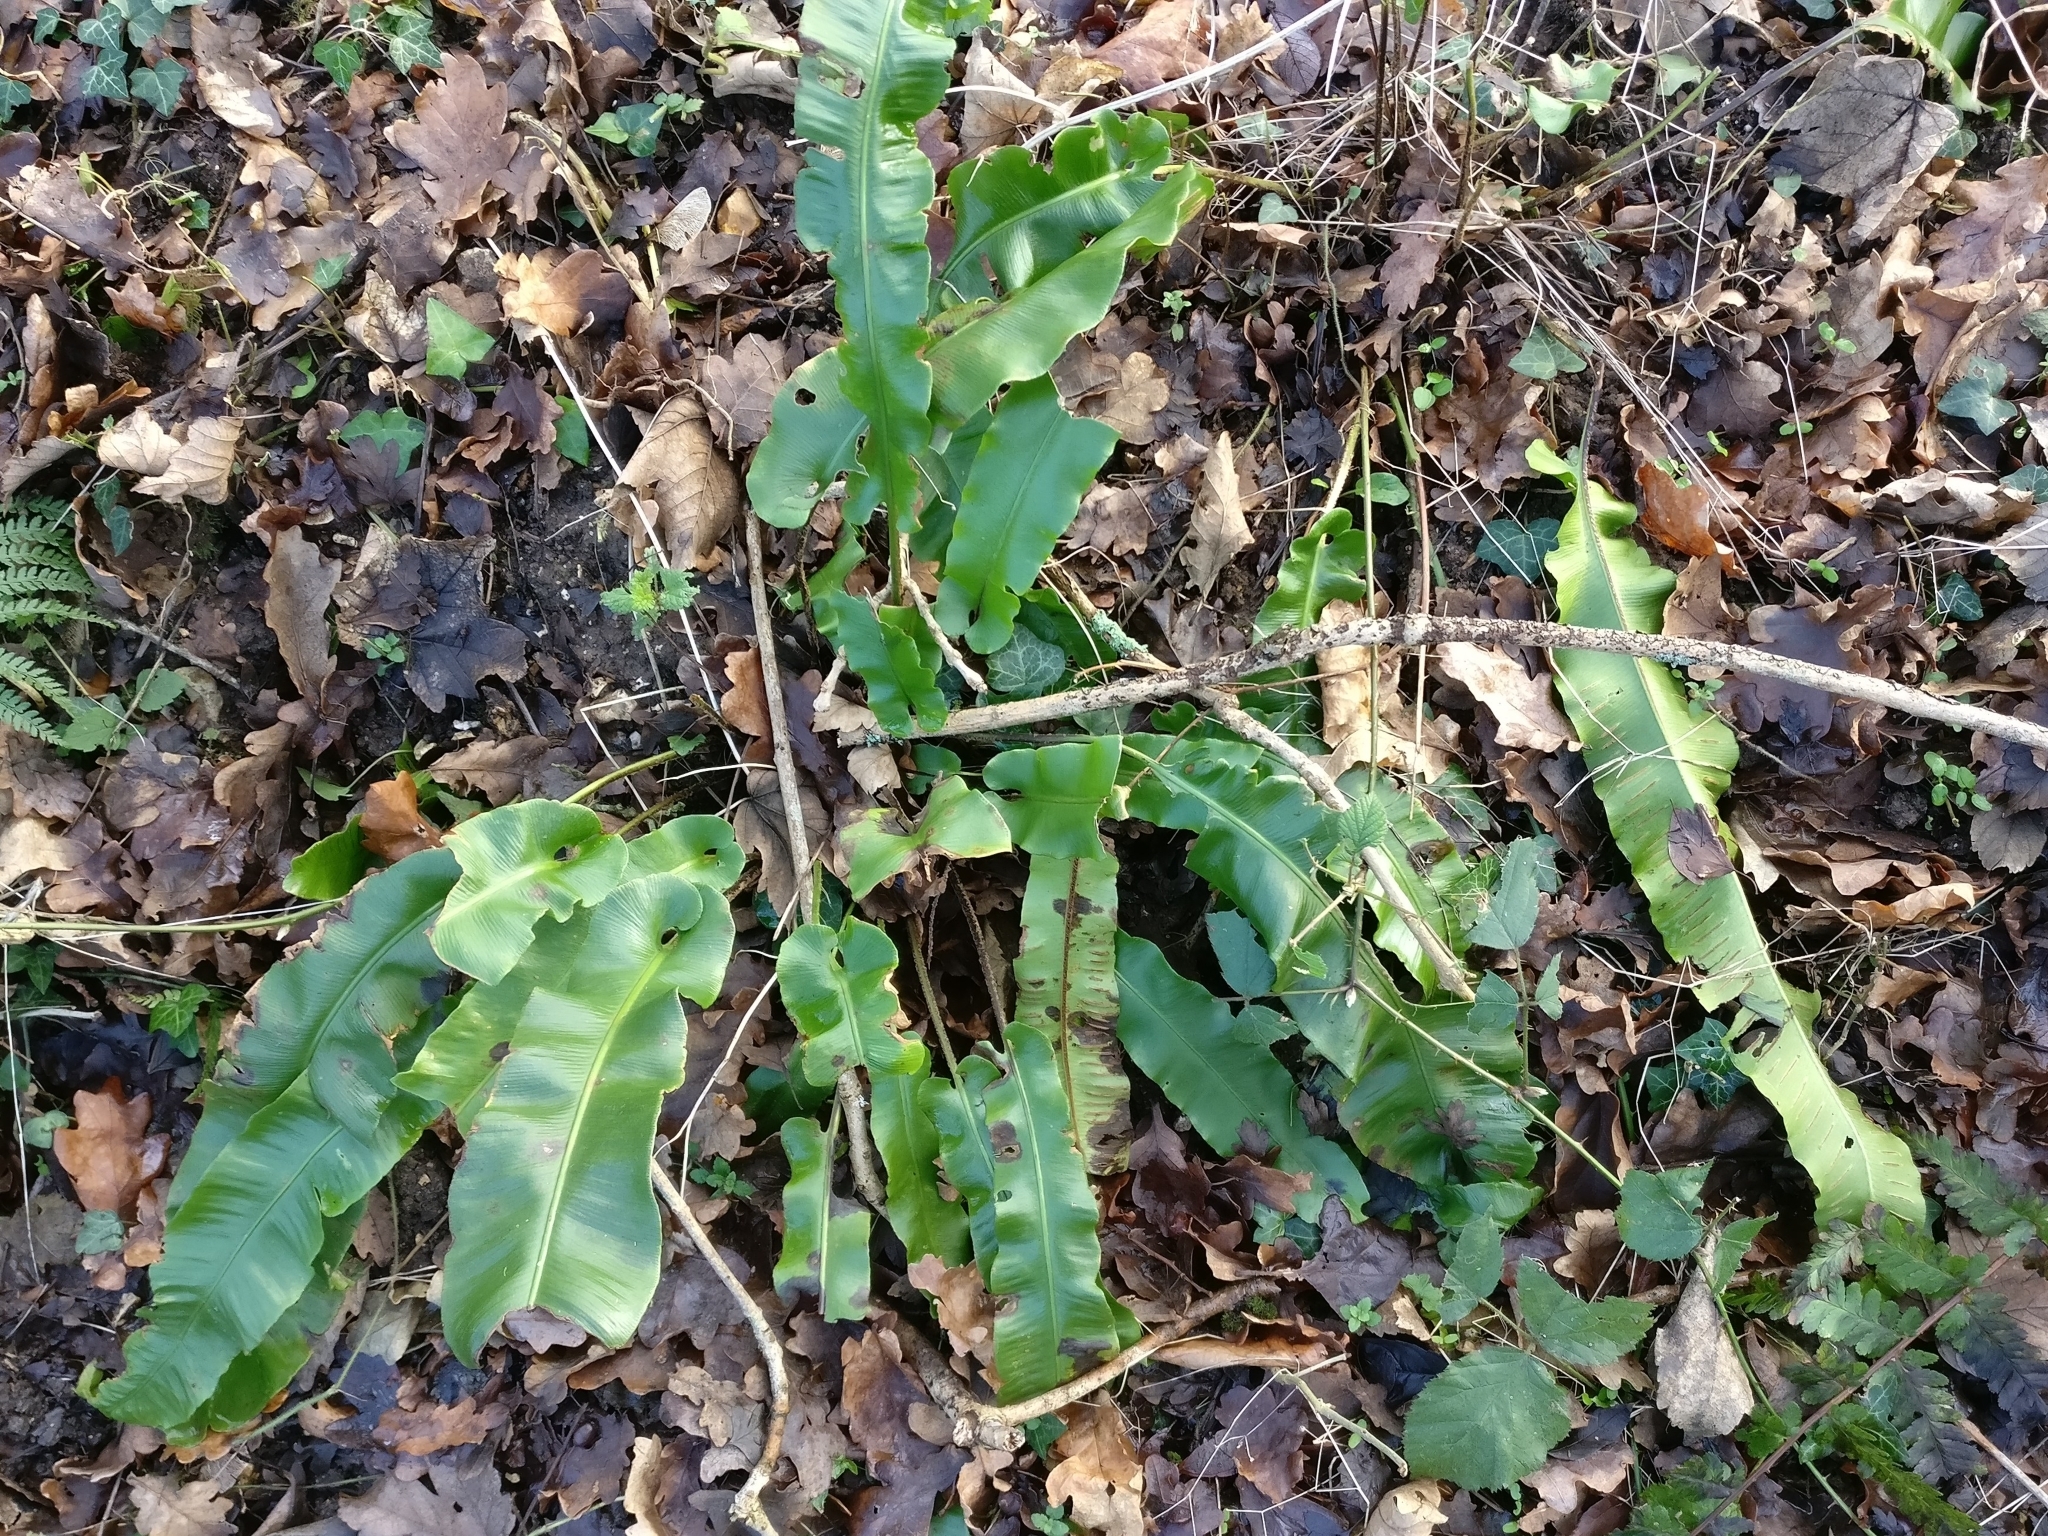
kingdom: Plantae
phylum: Tracheophyta
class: Polypodiopsida
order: Polypodiales
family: Aspleniaceae
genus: Asplenium
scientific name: Asplenium scolopendrium
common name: Hart's-tongue fern
